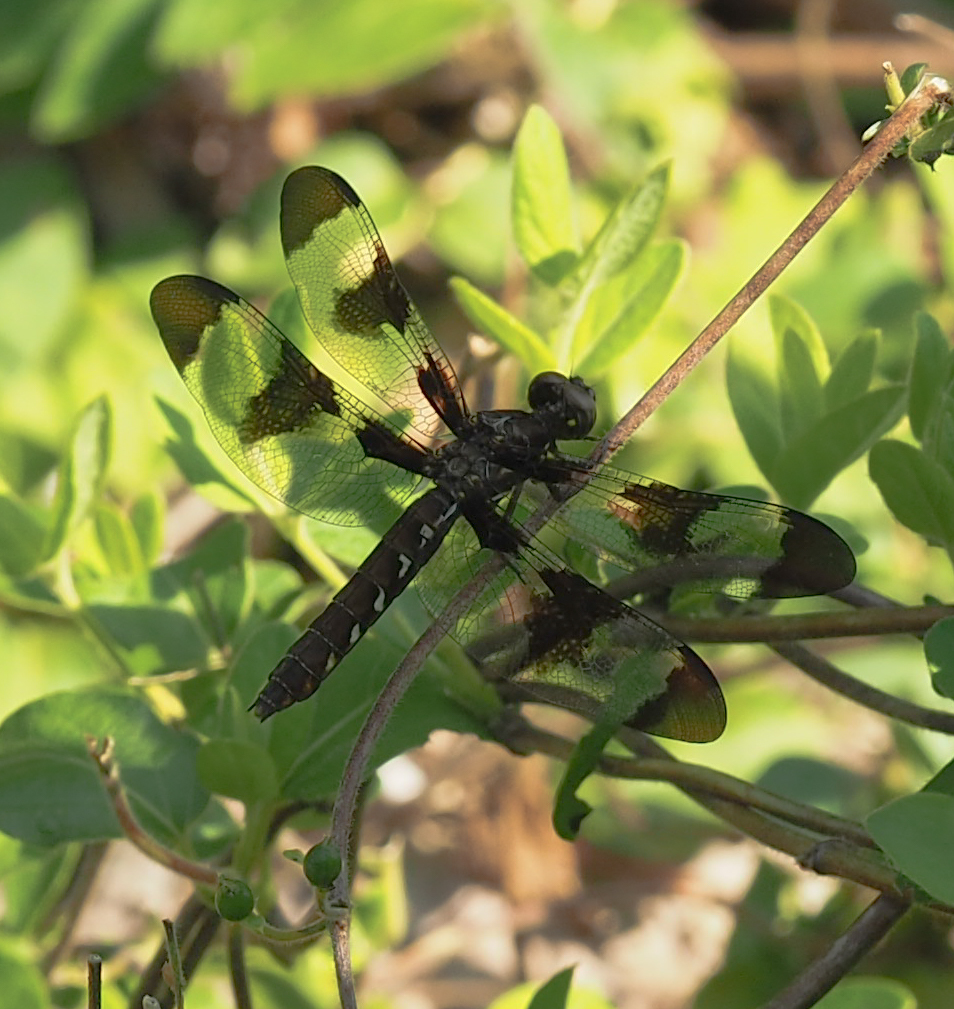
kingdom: Animalia
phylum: Arthropoda
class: Insecta
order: Odonata
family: Libellulidae
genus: Plathemis
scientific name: Plathemis lydia
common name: Common whitetail
